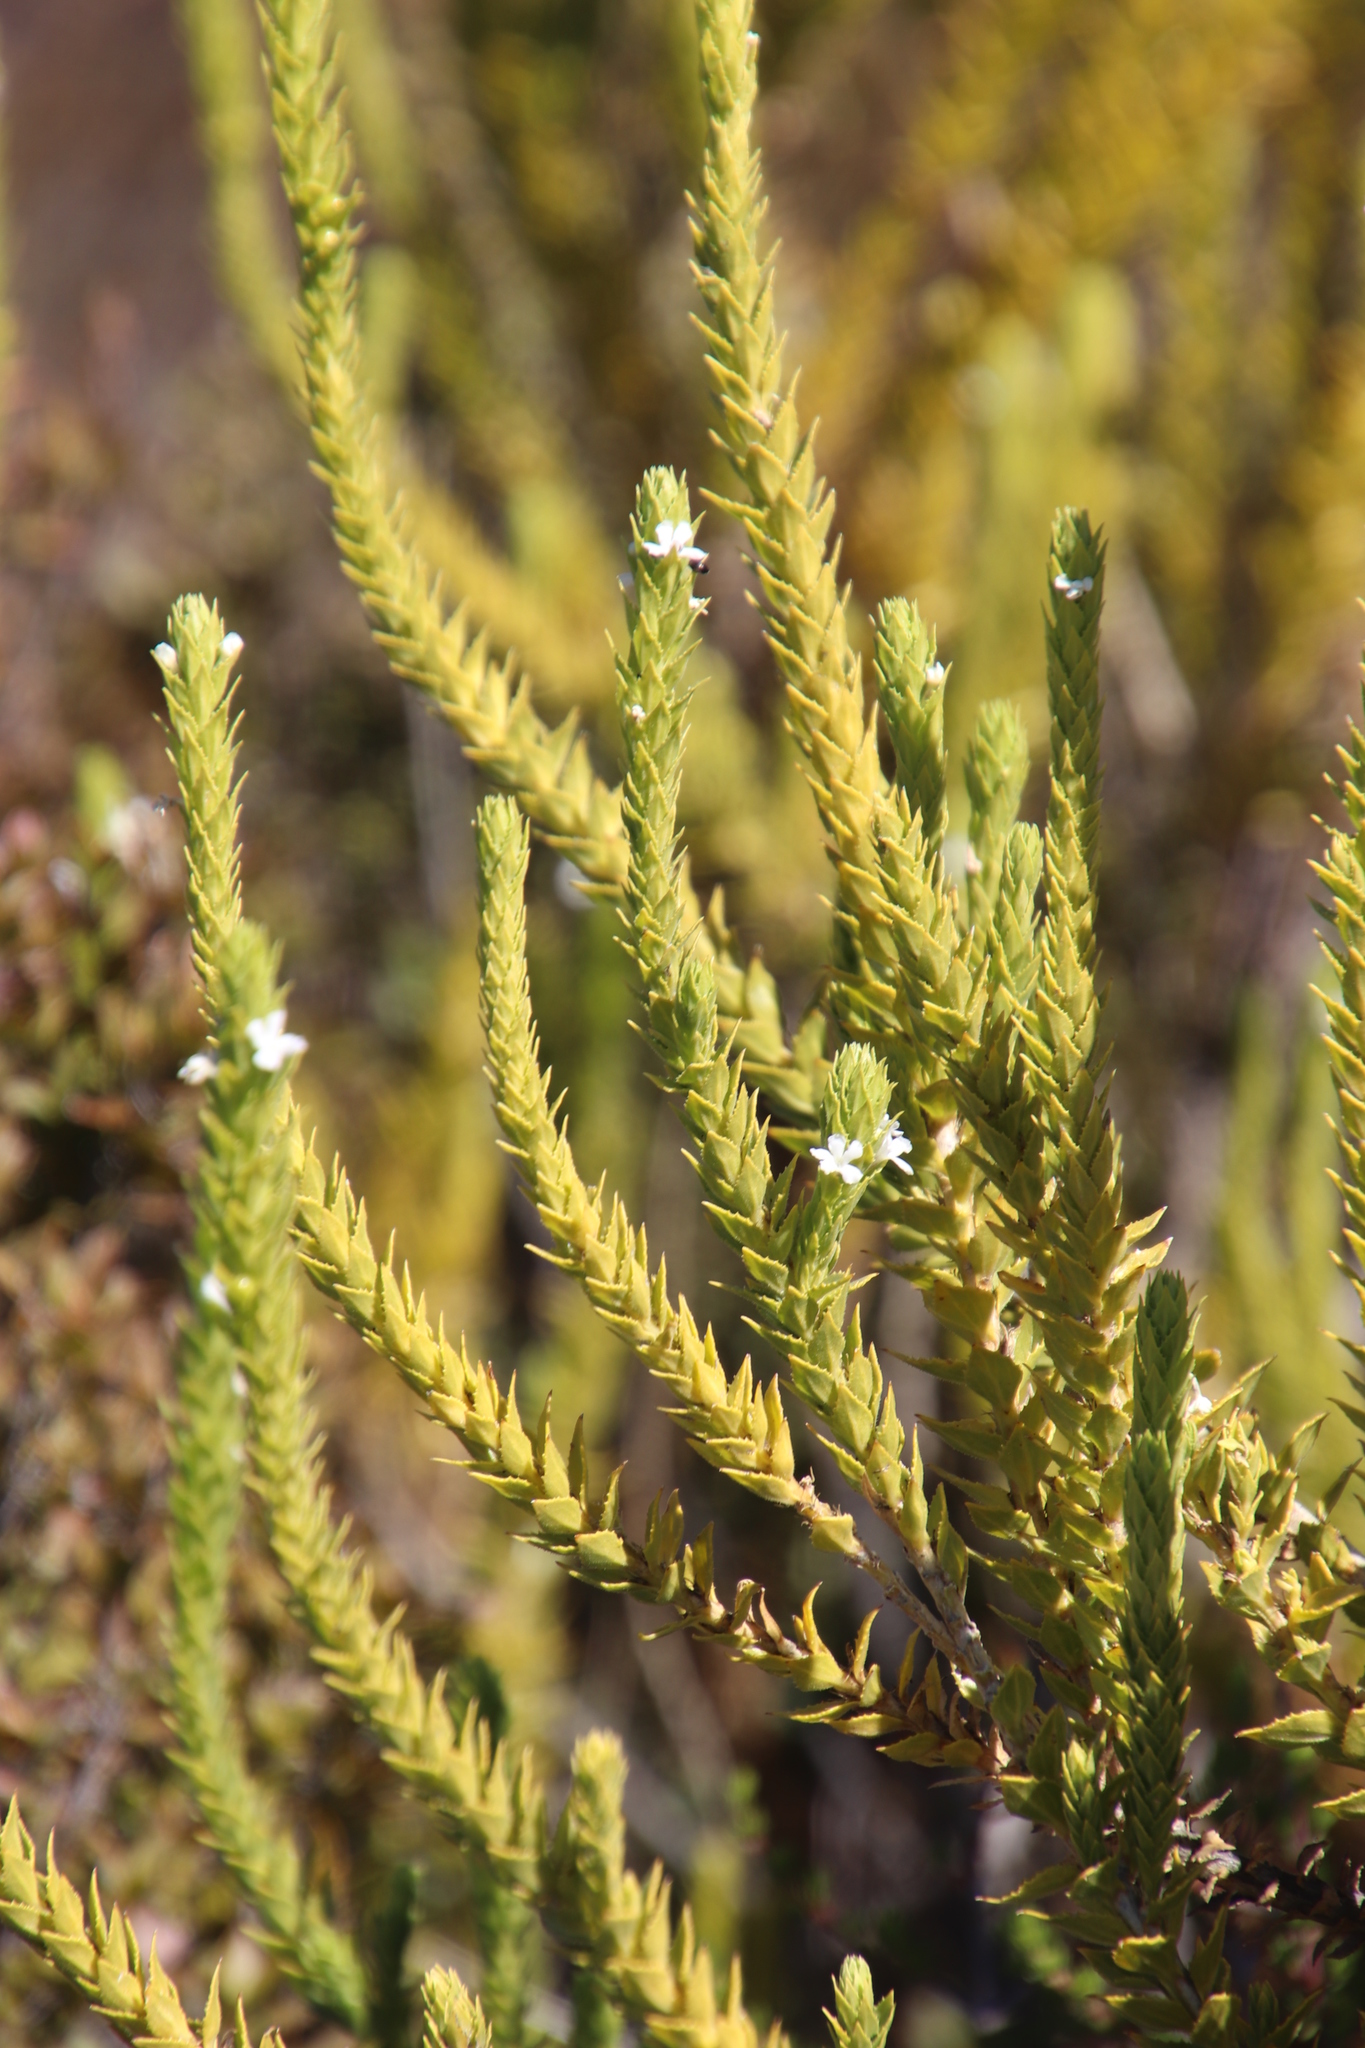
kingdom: Plantae
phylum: Tracheophyta
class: Magnoliopsida
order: Lamiales
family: Scrophulariaceae
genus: Oftia
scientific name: Oftia africana
